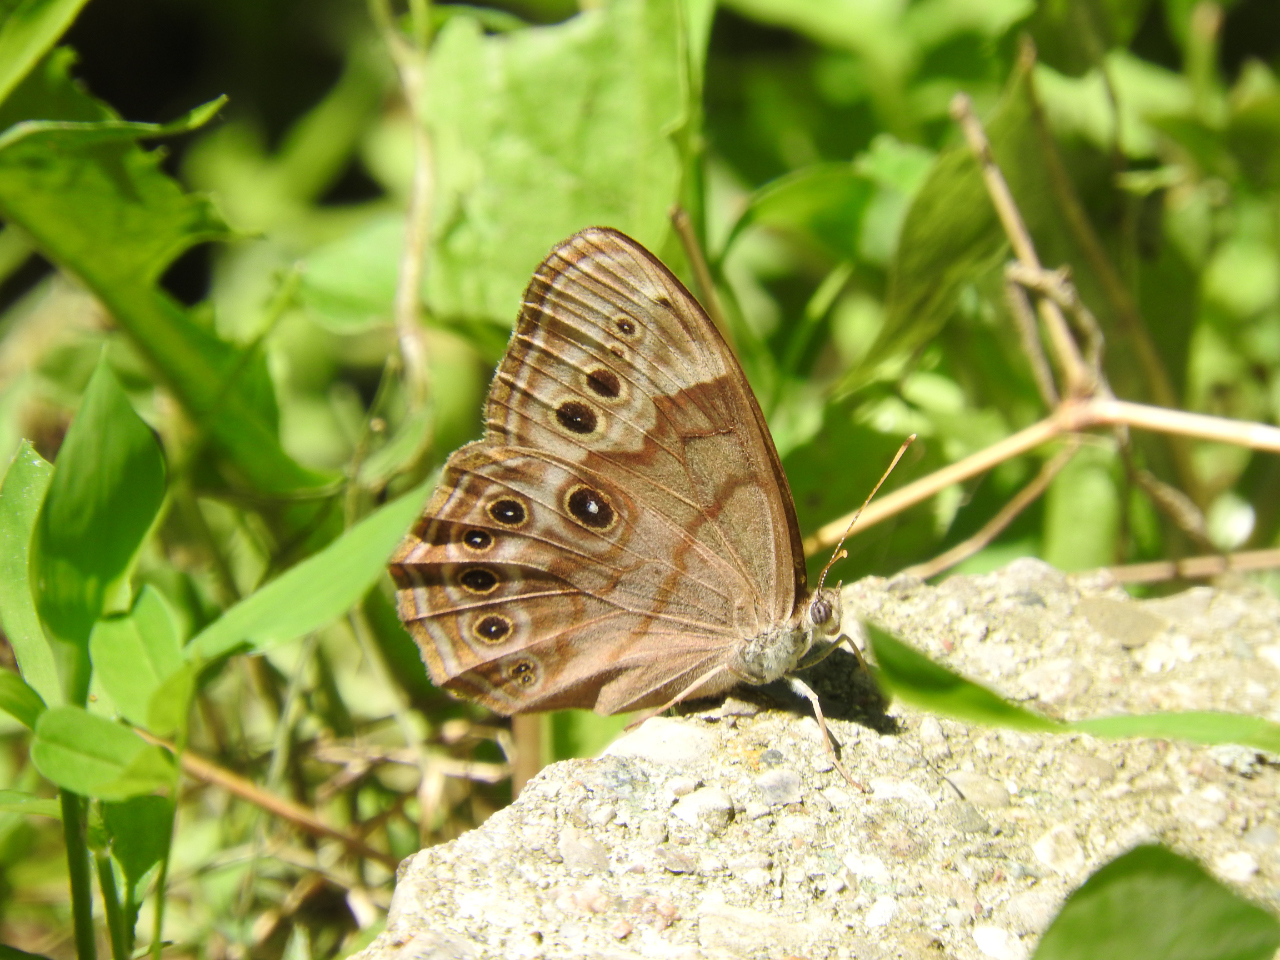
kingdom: Animalia
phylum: Arthropoda
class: Insecta
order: Lepidoptera
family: Nymphalidae
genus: Lethe
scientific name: Lethe anthedon
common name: Northern pearly-eye
